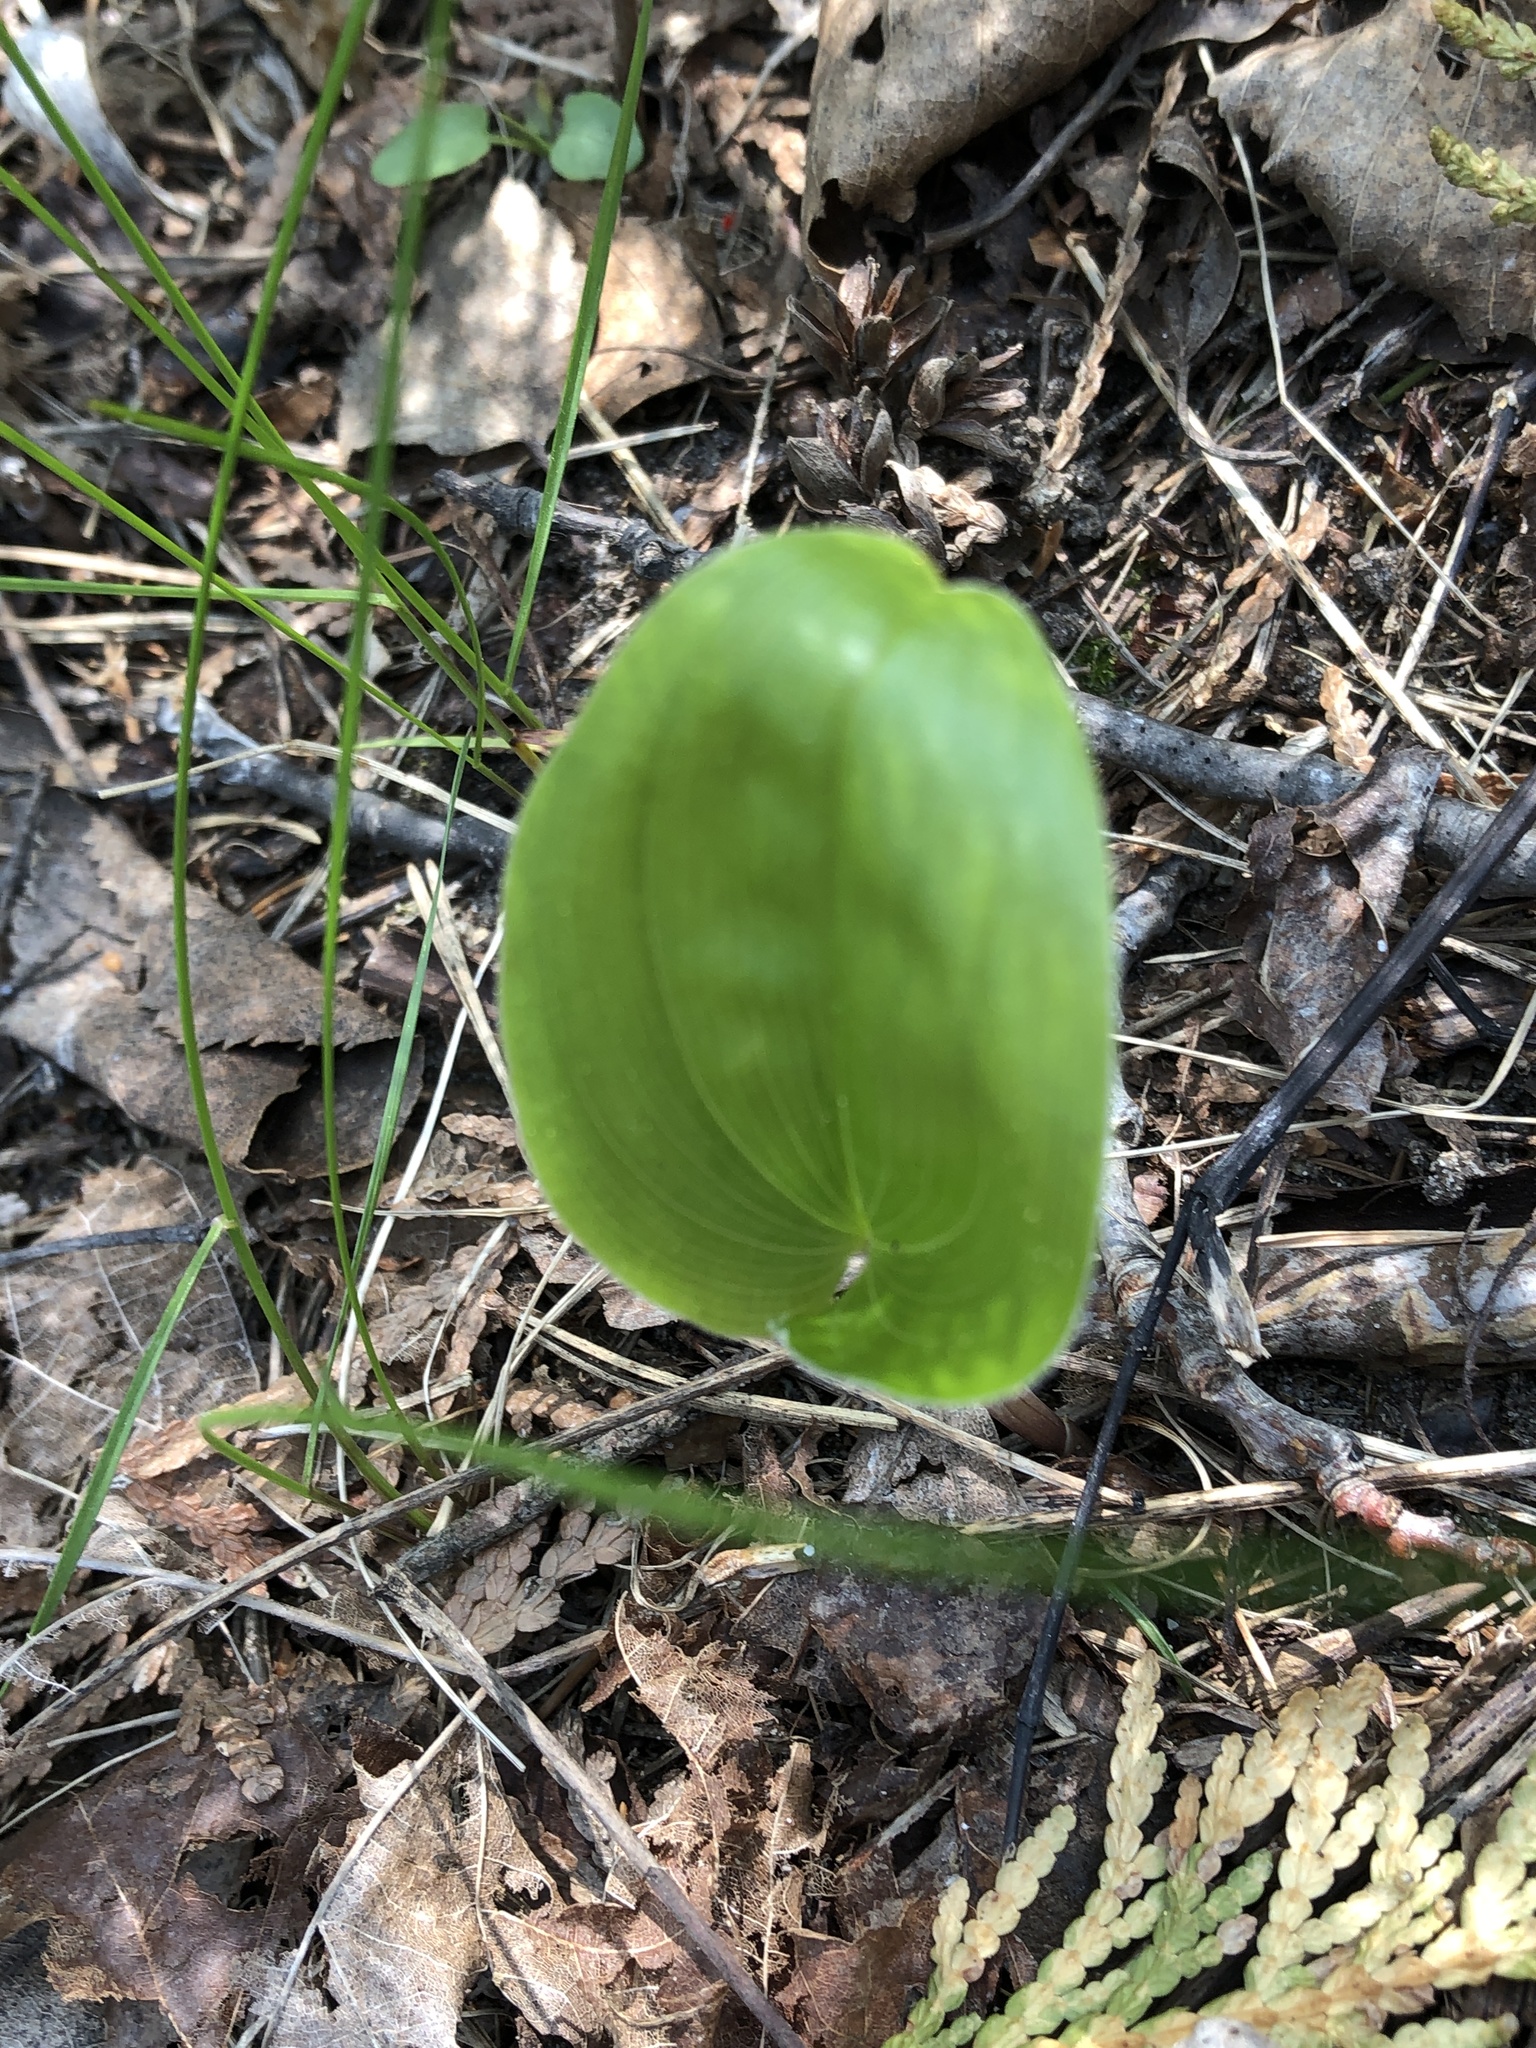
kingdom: Plantae
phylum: Tracheophyta
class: Liliopsida
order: Asparagales
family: Asparagaceae
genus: Maianthemum
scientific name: Maianthemum canadense
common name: False lily-of-the-valley
